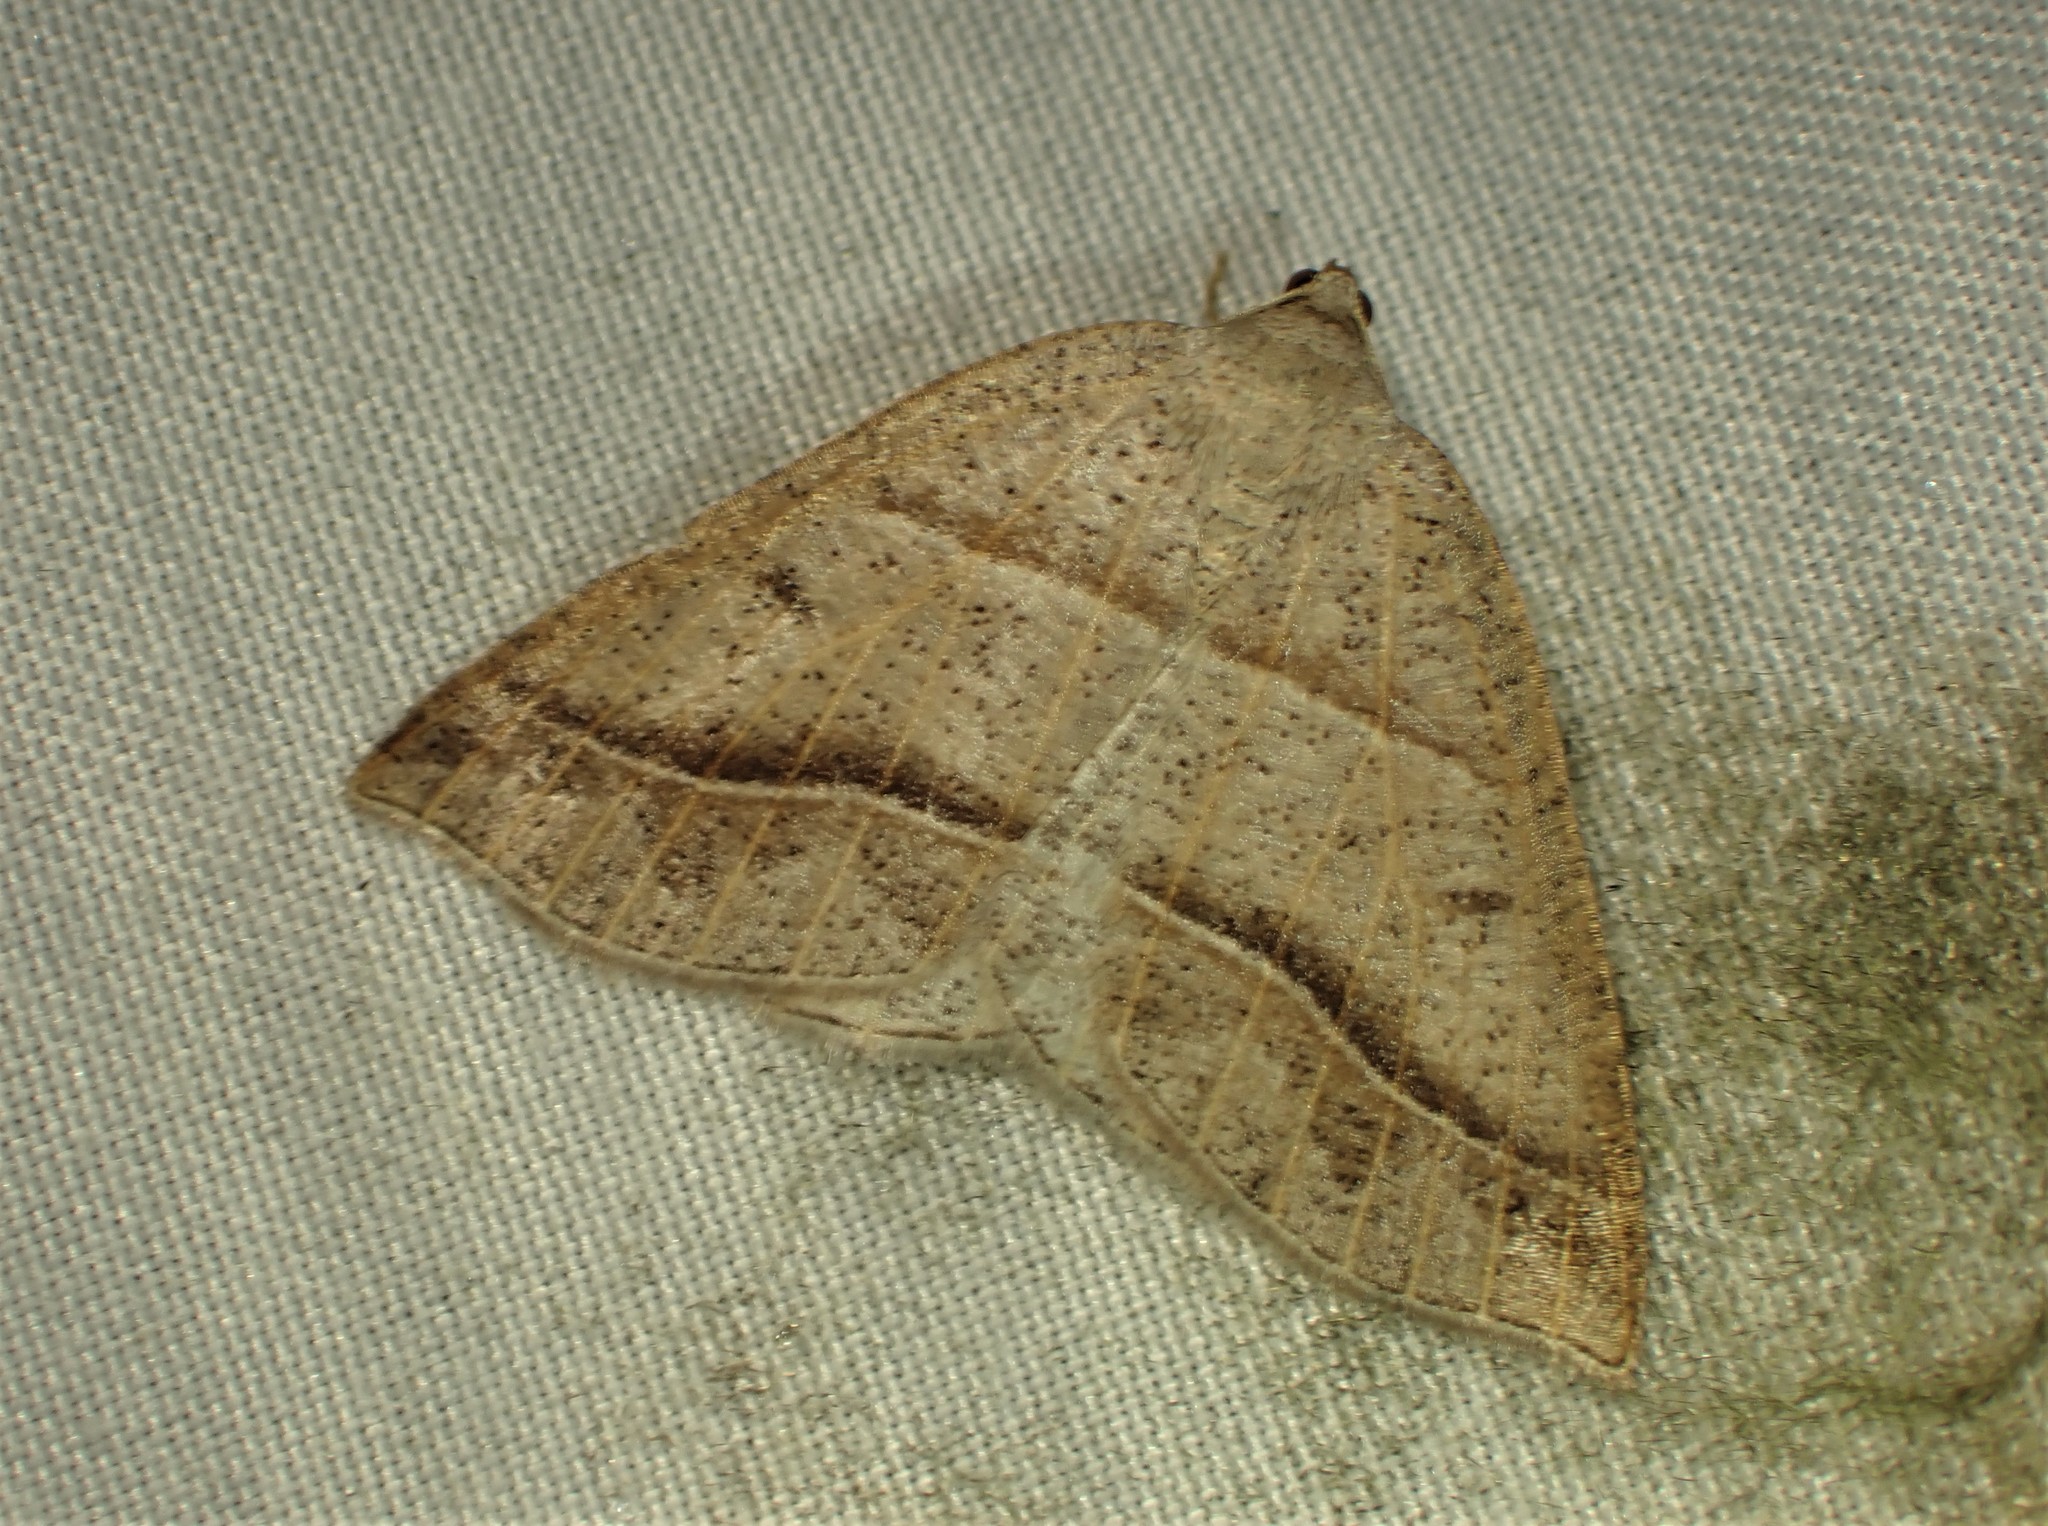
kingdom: Animalia
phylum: Arthropoda
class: Insecta
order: Lepidoptera
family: Pterophoridae
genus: Pterophorus
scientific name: Pterophorus Petrophora subaequaria
